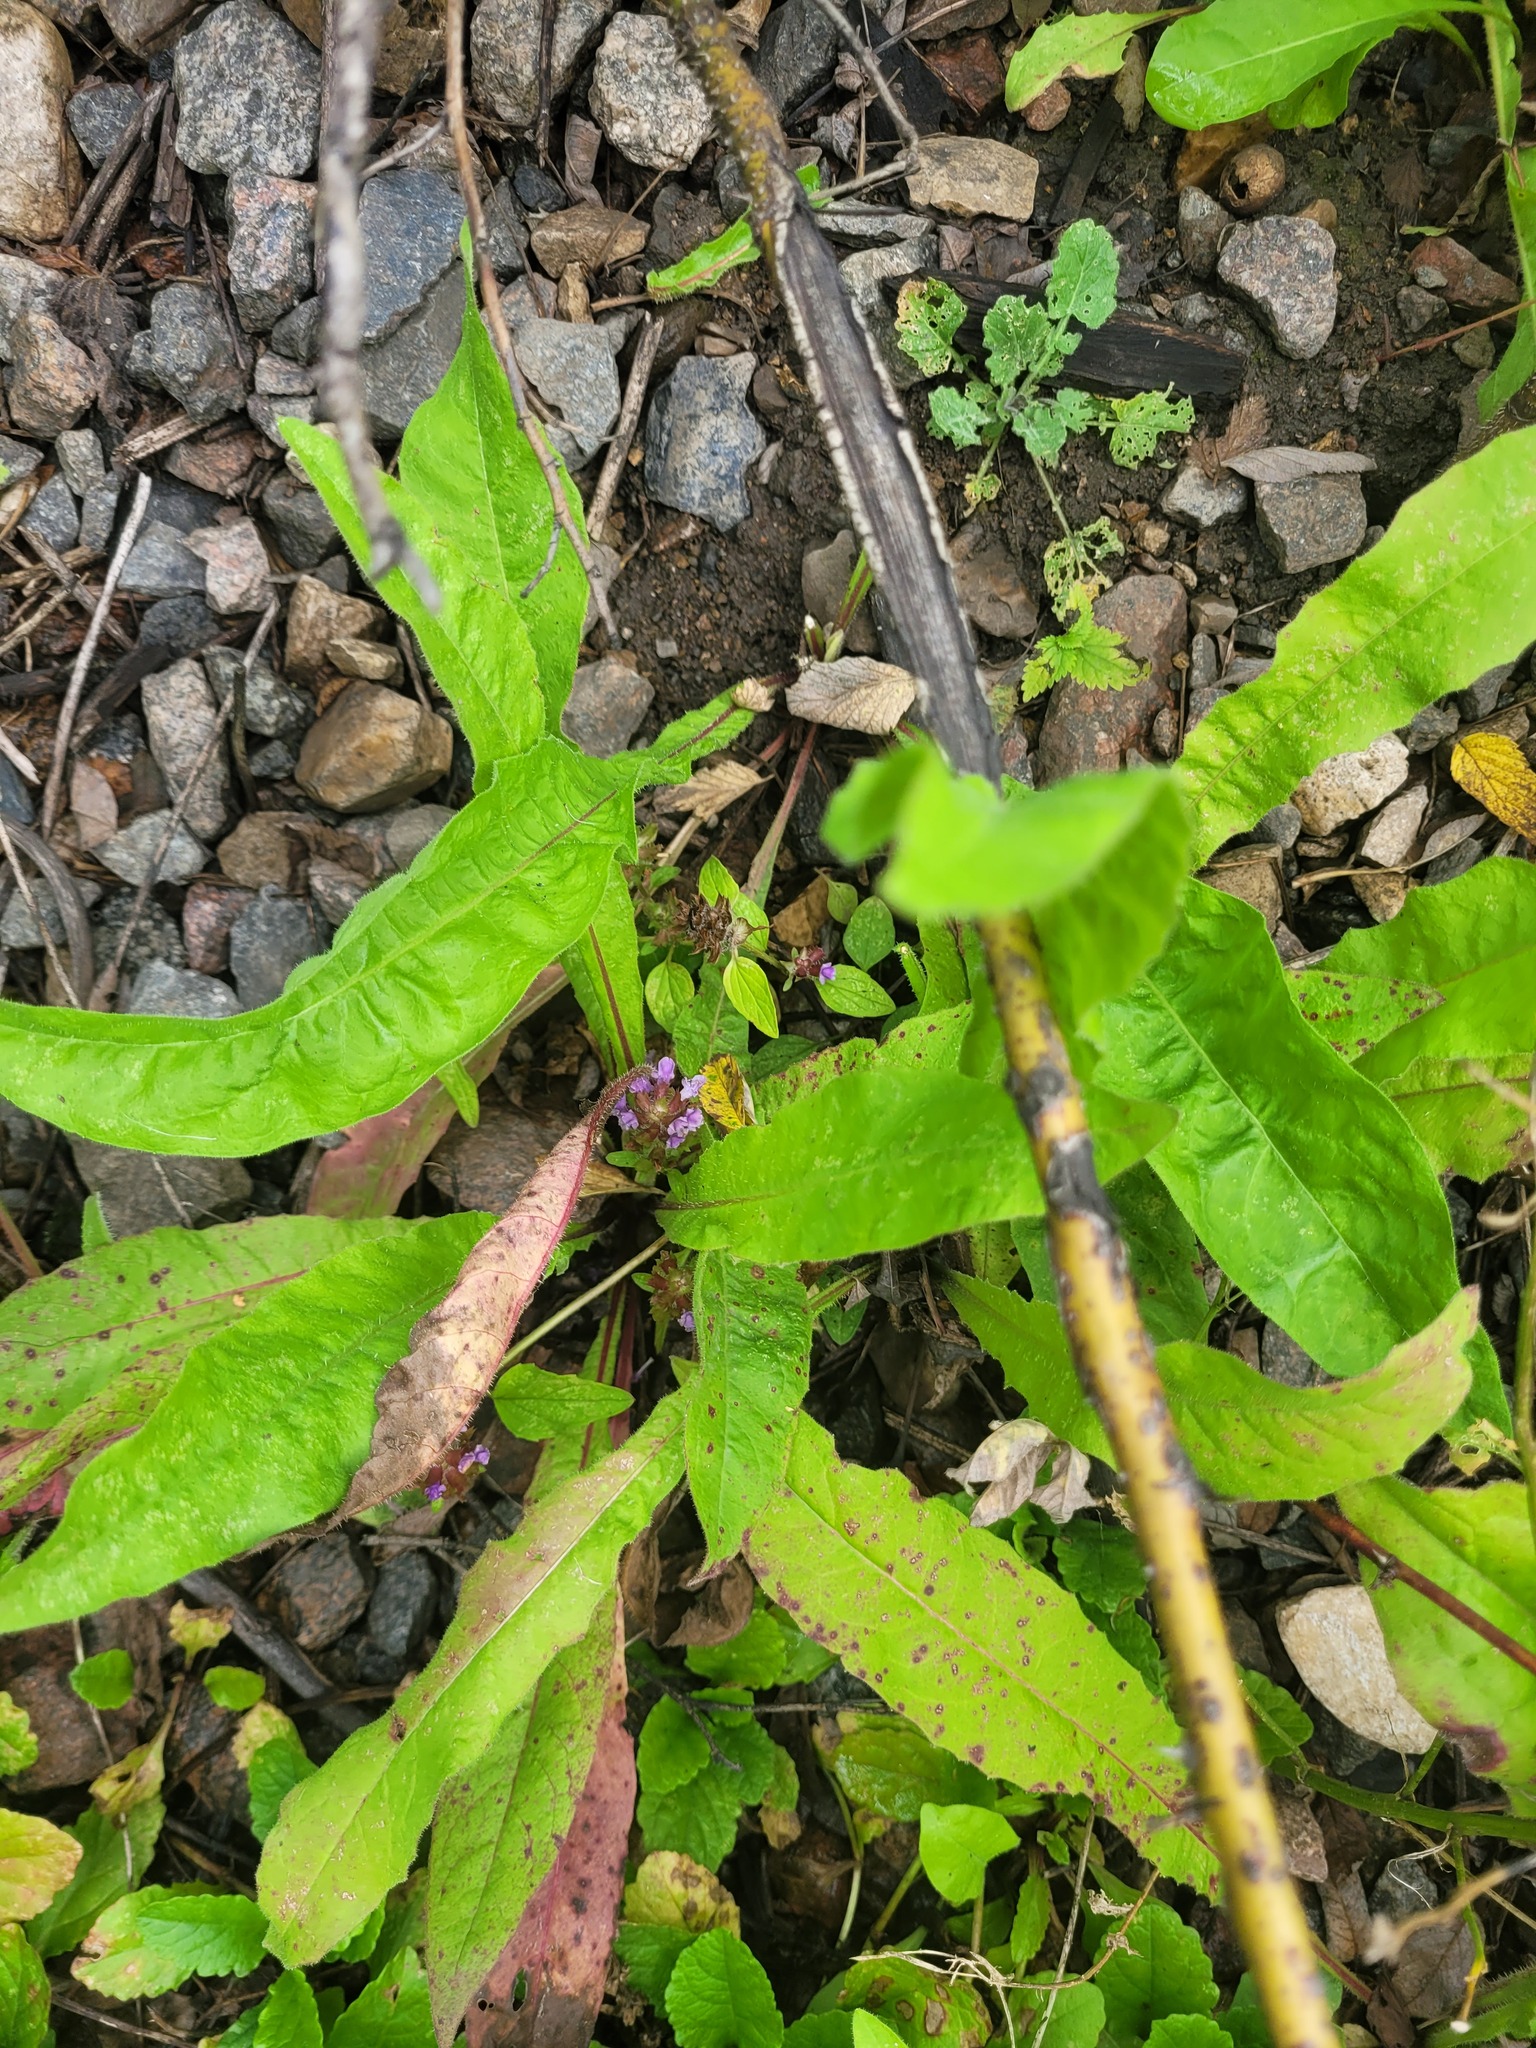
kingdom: Plantae
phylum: Tracheophyta
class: Magnoliopsida
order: Lamiales
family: Lamiaceae
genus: Prunella
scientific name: Prunella vulgaris
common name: Heal-all
